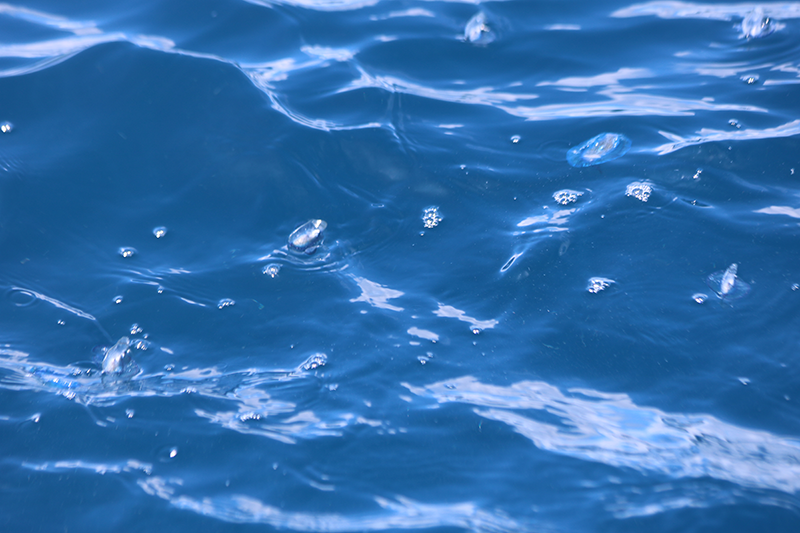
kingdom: Animalia
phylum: Cnidaria
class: Hydrozoa
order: Siphonophorae
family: Physaliidae
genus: Physalia
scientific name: Physalia physalis
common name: Portuguese man-of-war
